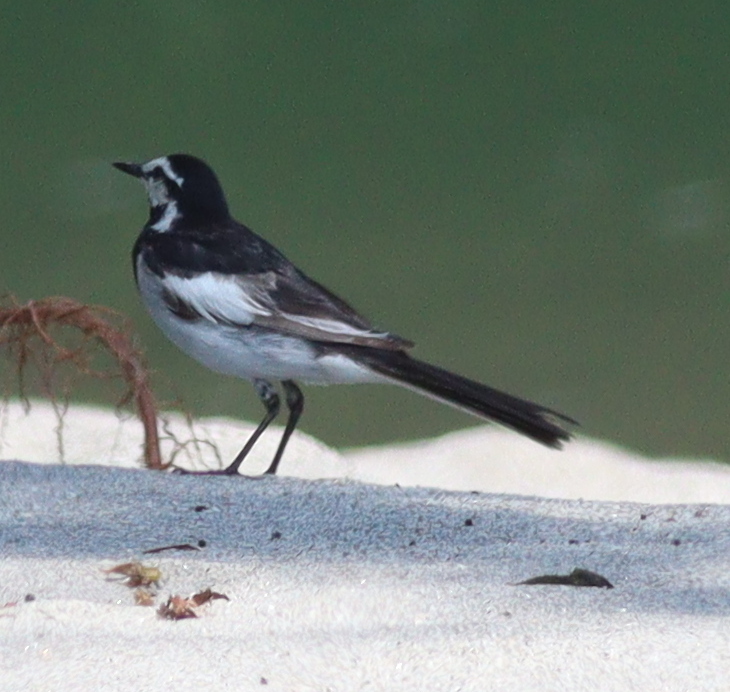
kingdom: Animalia
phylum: Chordata
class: Aves
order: Passeriformes
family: Motacillidae
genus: Motacilla
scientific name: Motacilla alba
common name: White wagtail
